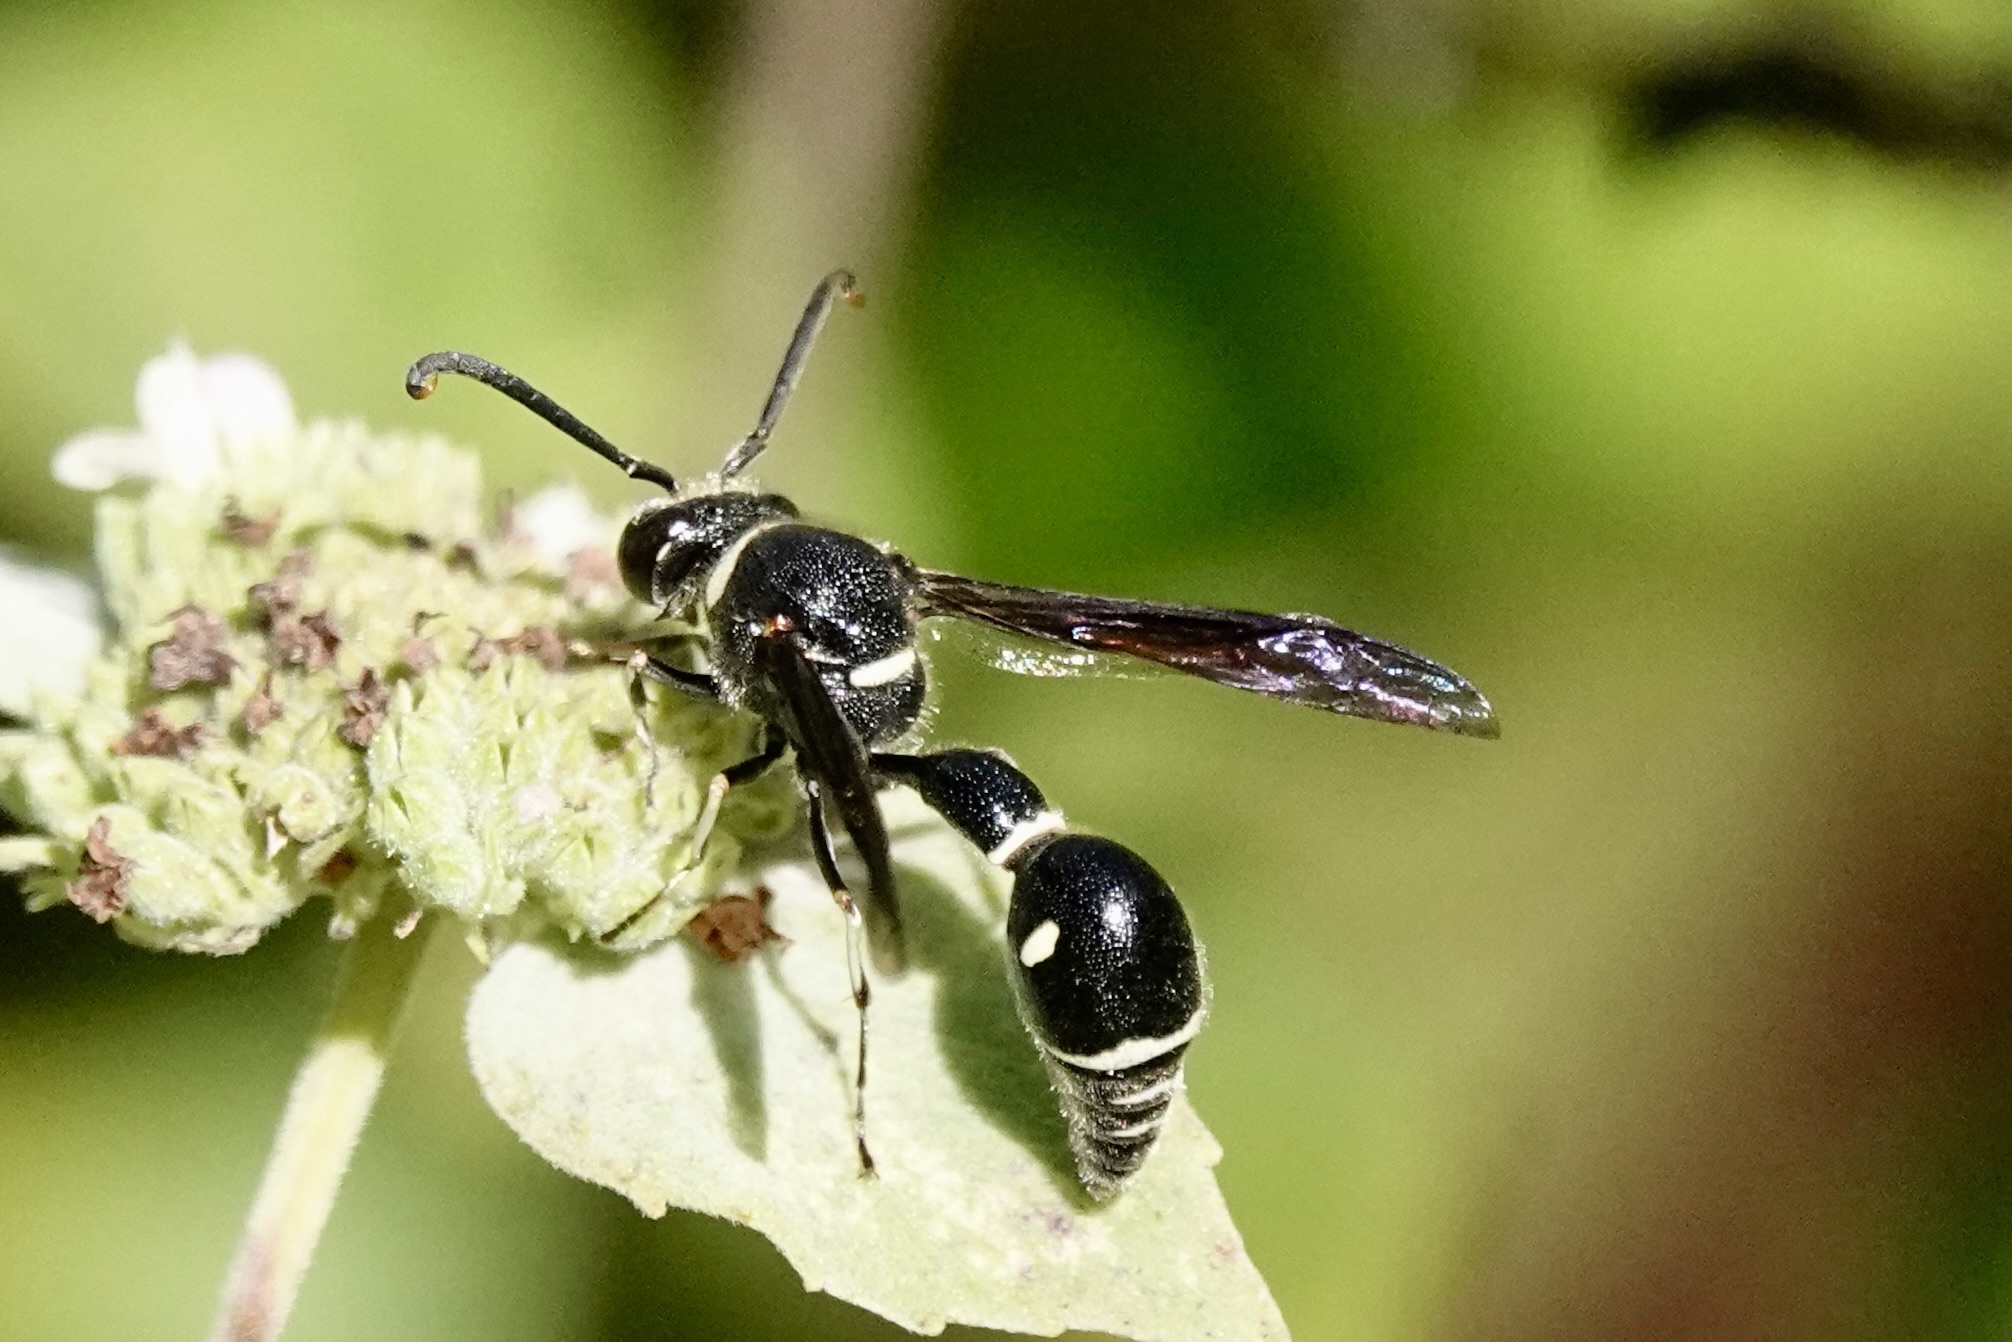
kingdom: Animalia
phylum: Arthropoda
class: Insecta
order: Hymenoptera
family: Vespidae
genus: Eumenes
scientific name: Eumenes fraternus
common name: Fraternal potter wasp
